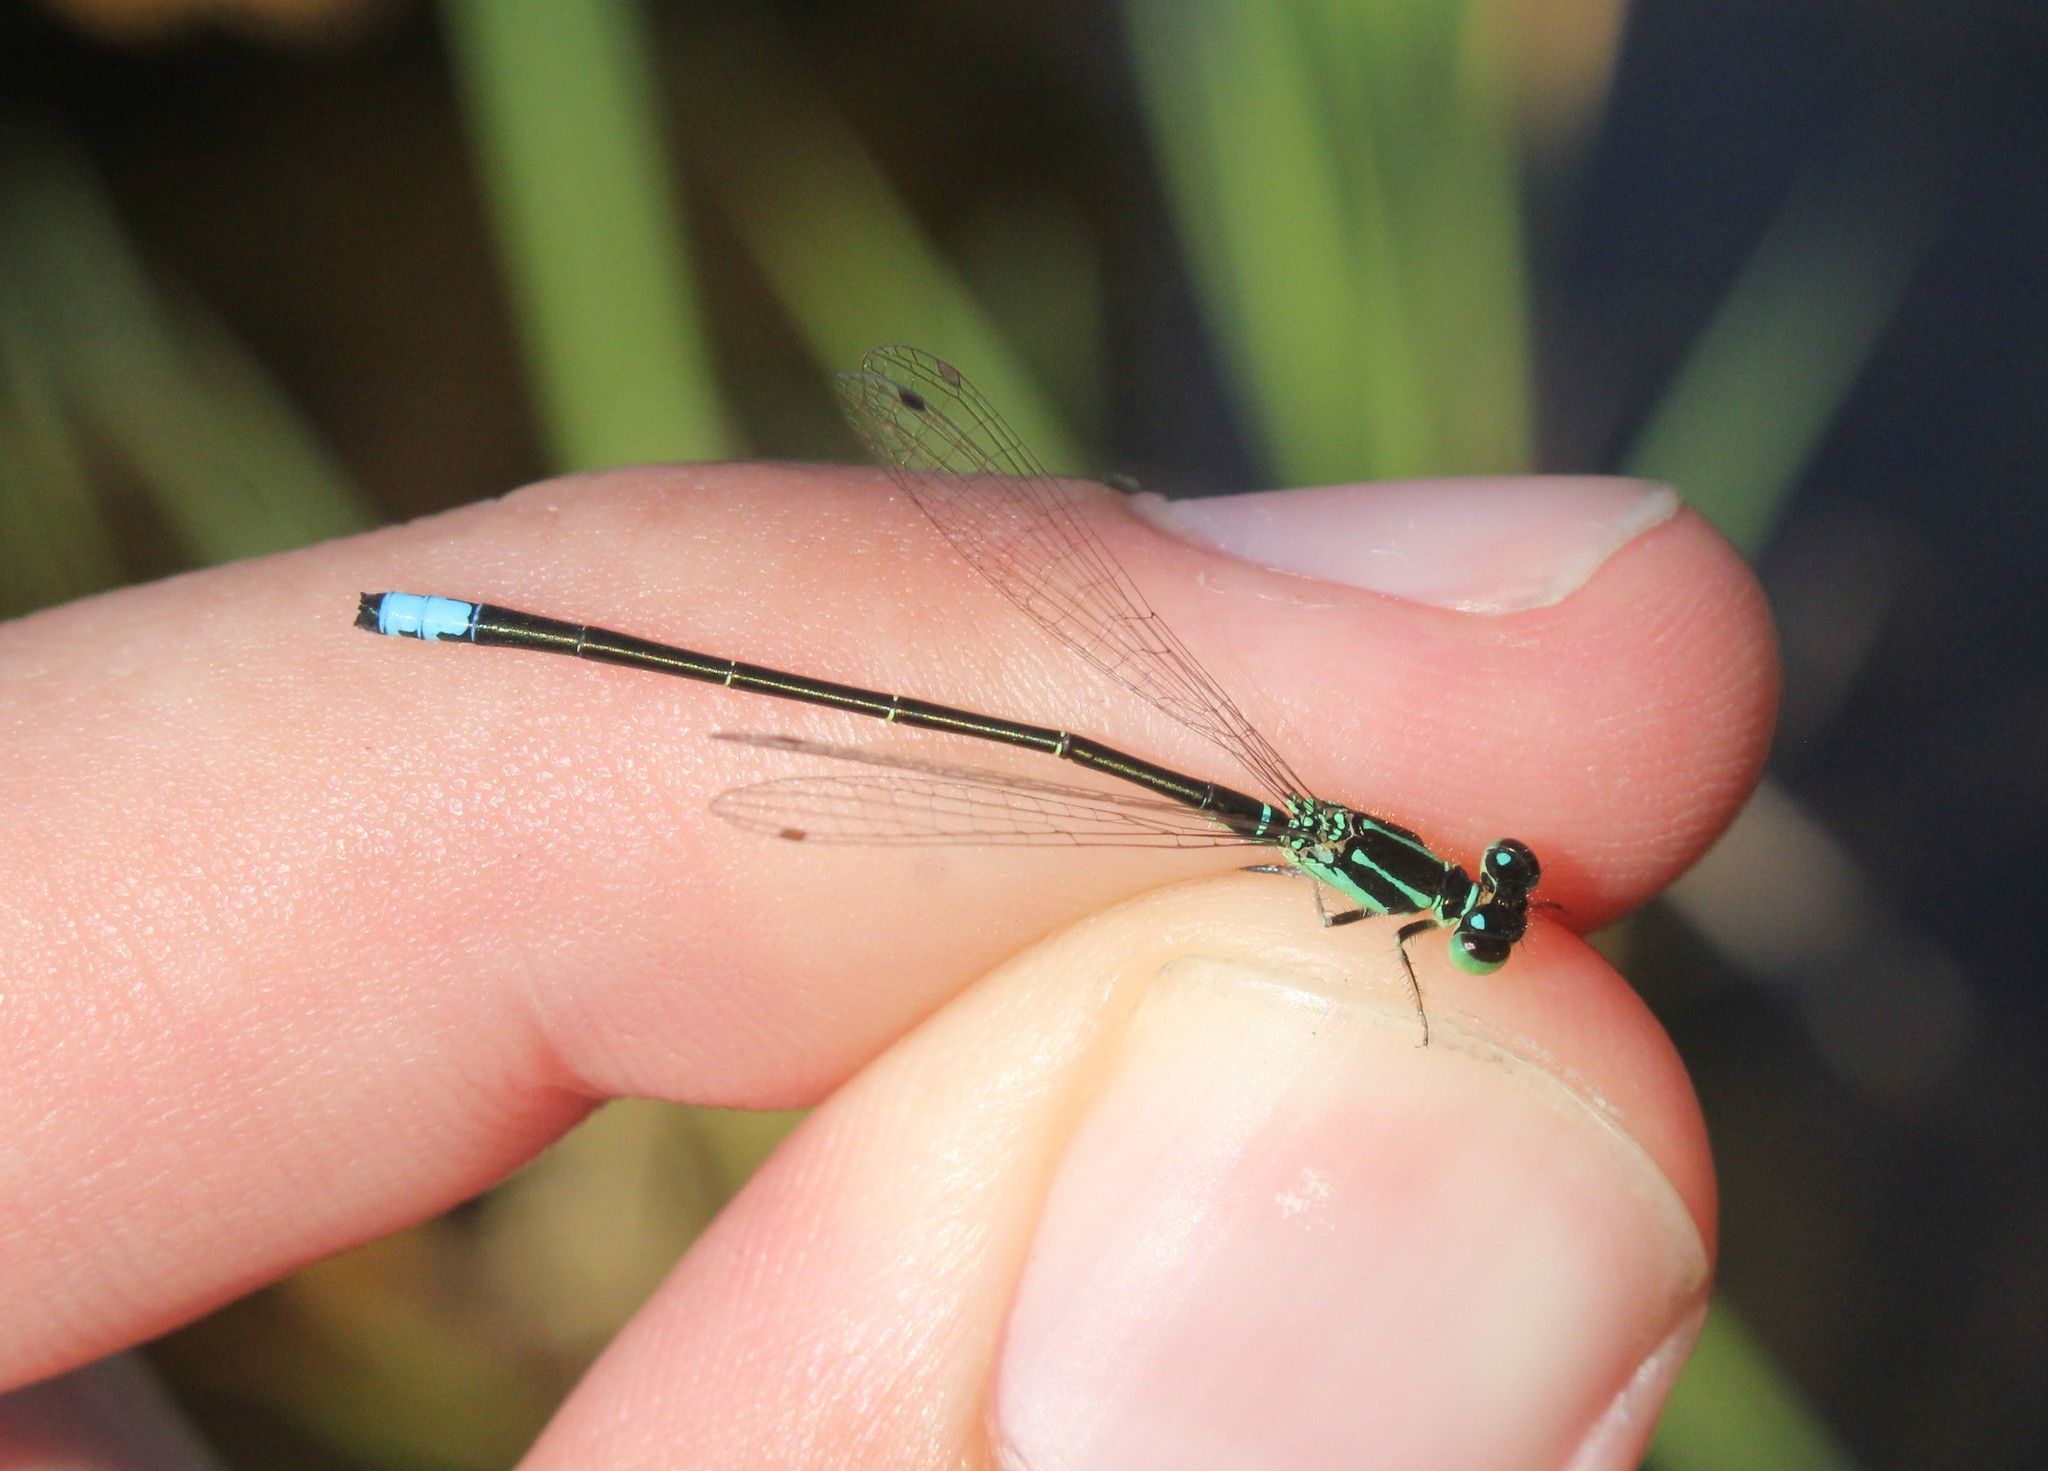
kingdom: Animalia
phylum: Arthropoda
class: Insecta
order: Odonata
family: Coenagrionidae
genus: Ischnura
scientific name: Ischnura verticalis
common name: Eastern forktail
